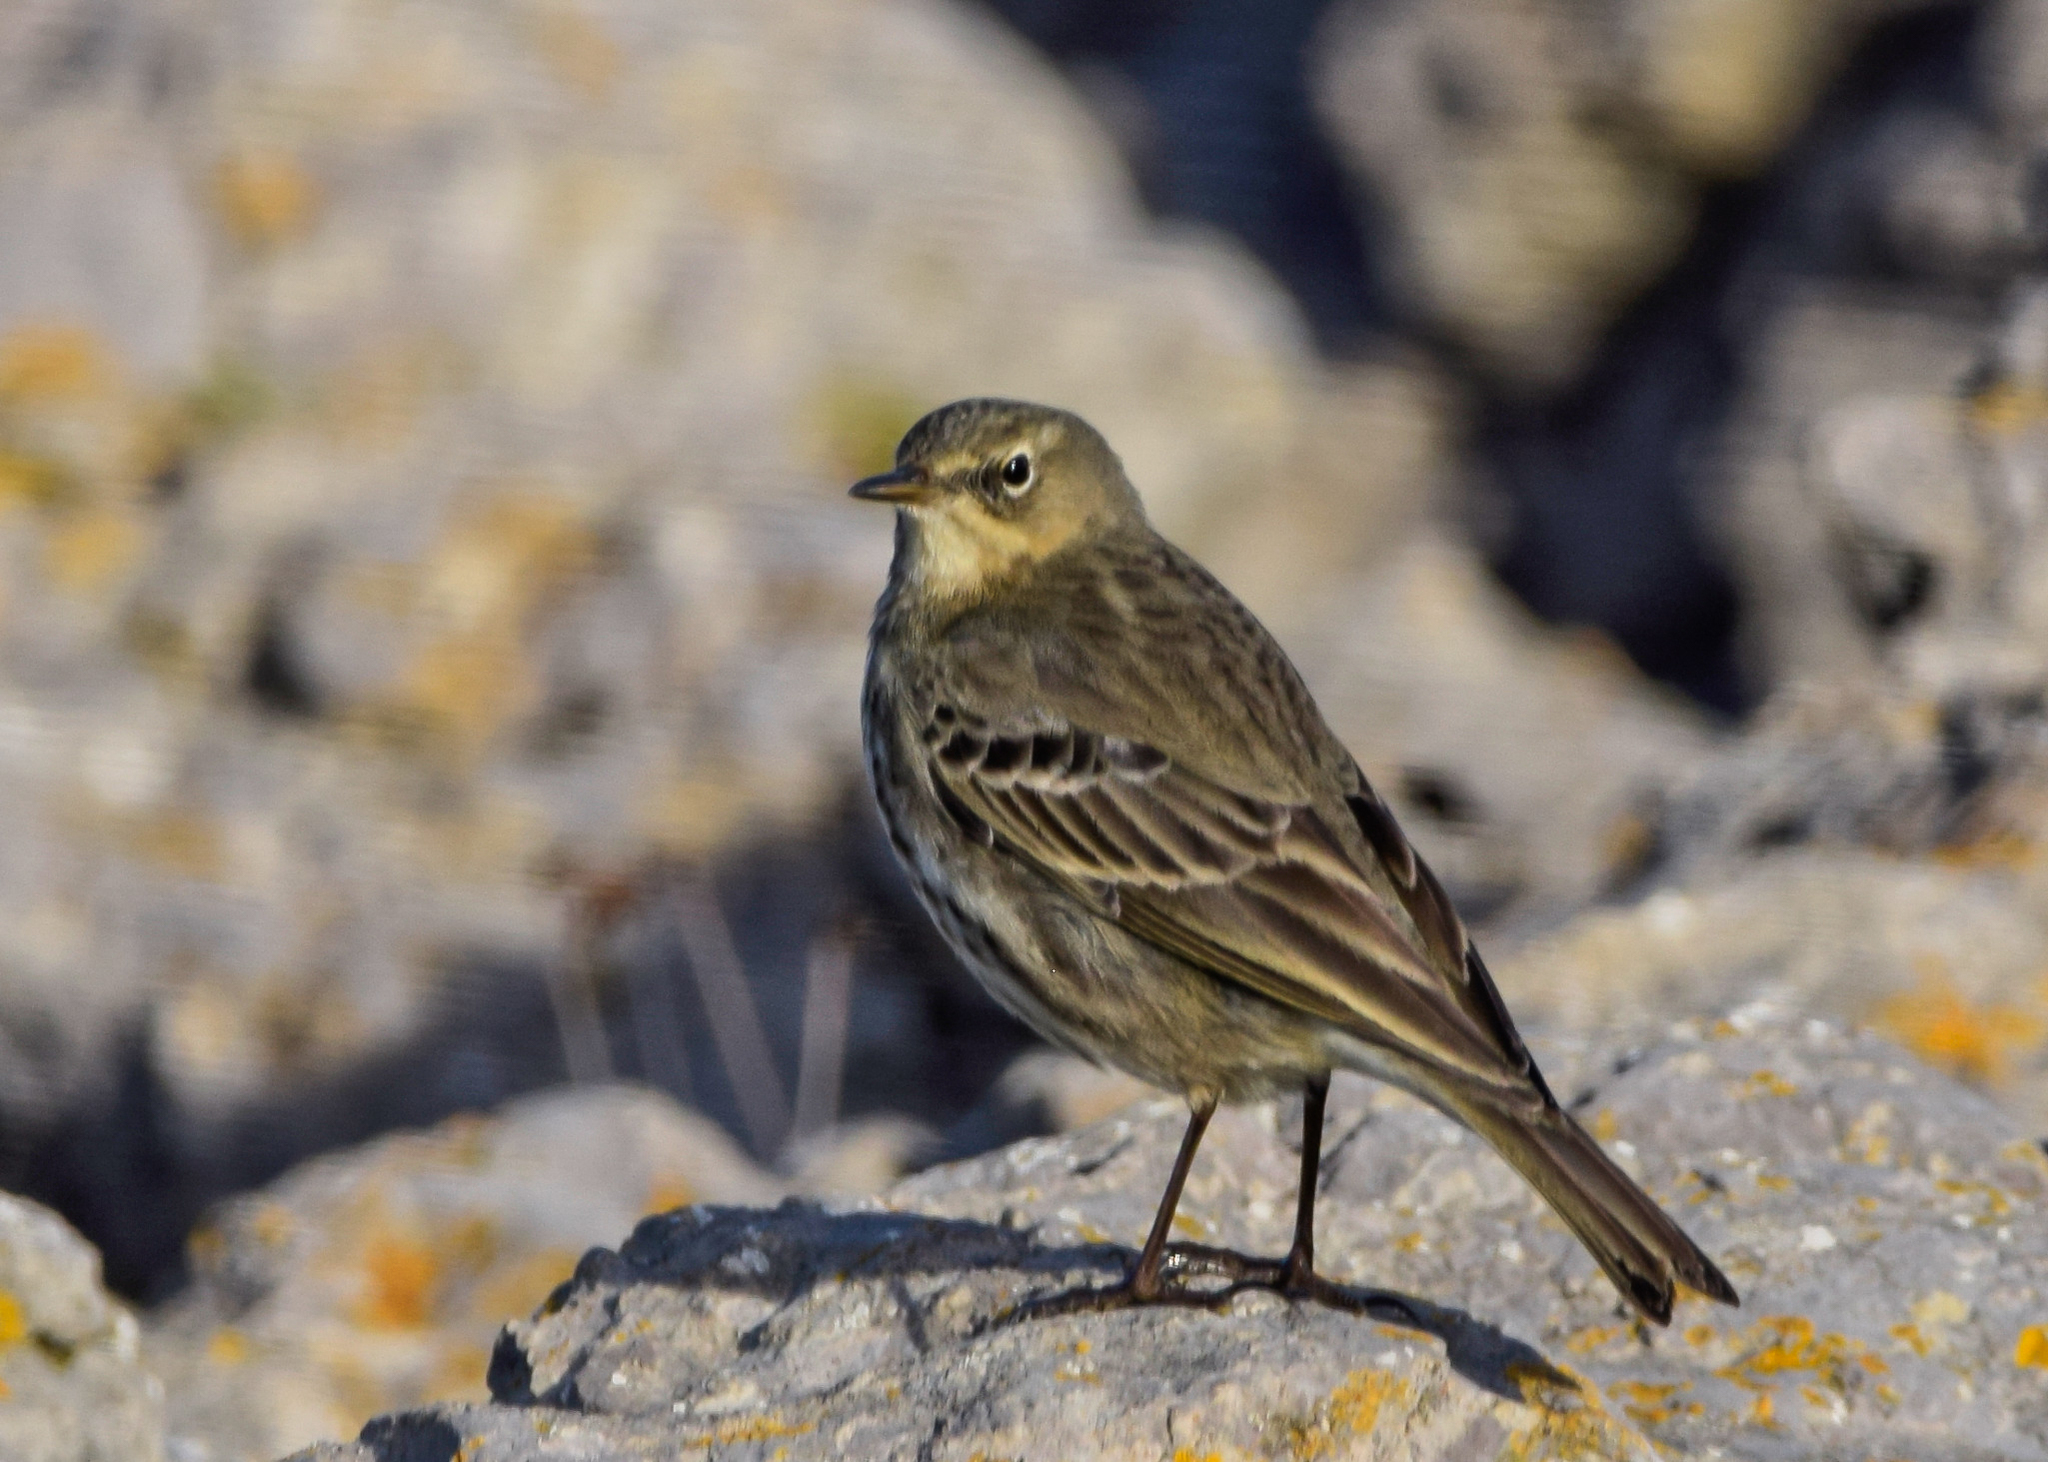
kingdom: Animalia
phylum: Chordata
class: Aves
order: Passeriformes
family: Motacillidae
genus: Anthus
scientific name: Anthus petrosus
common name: Eurasian rock pipit
